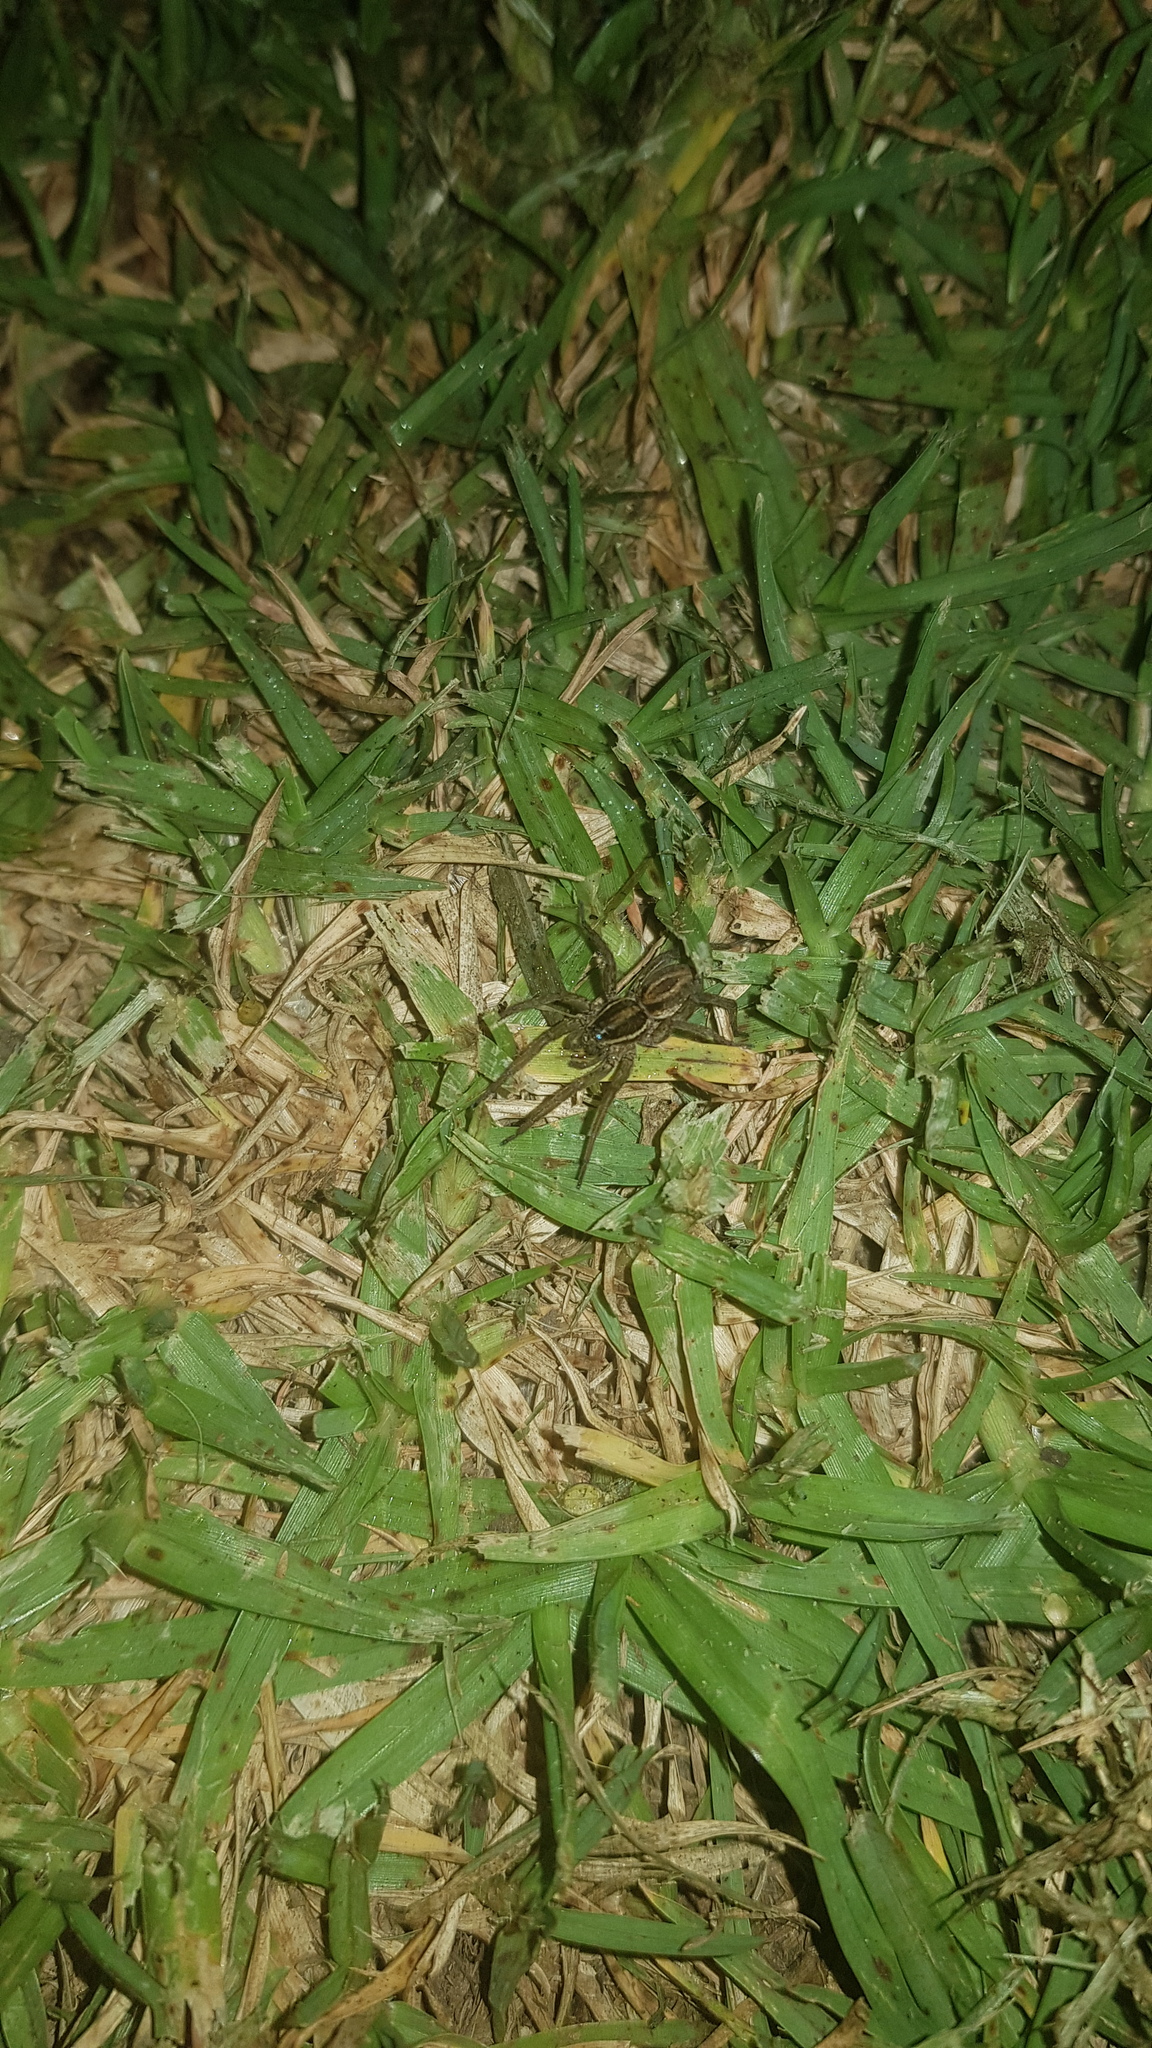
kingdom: Animalia
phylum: Arthropoda
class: Arachnida
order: Araneae
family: Lycosidae
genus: Venatrix
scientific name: Venatrix furcillata
